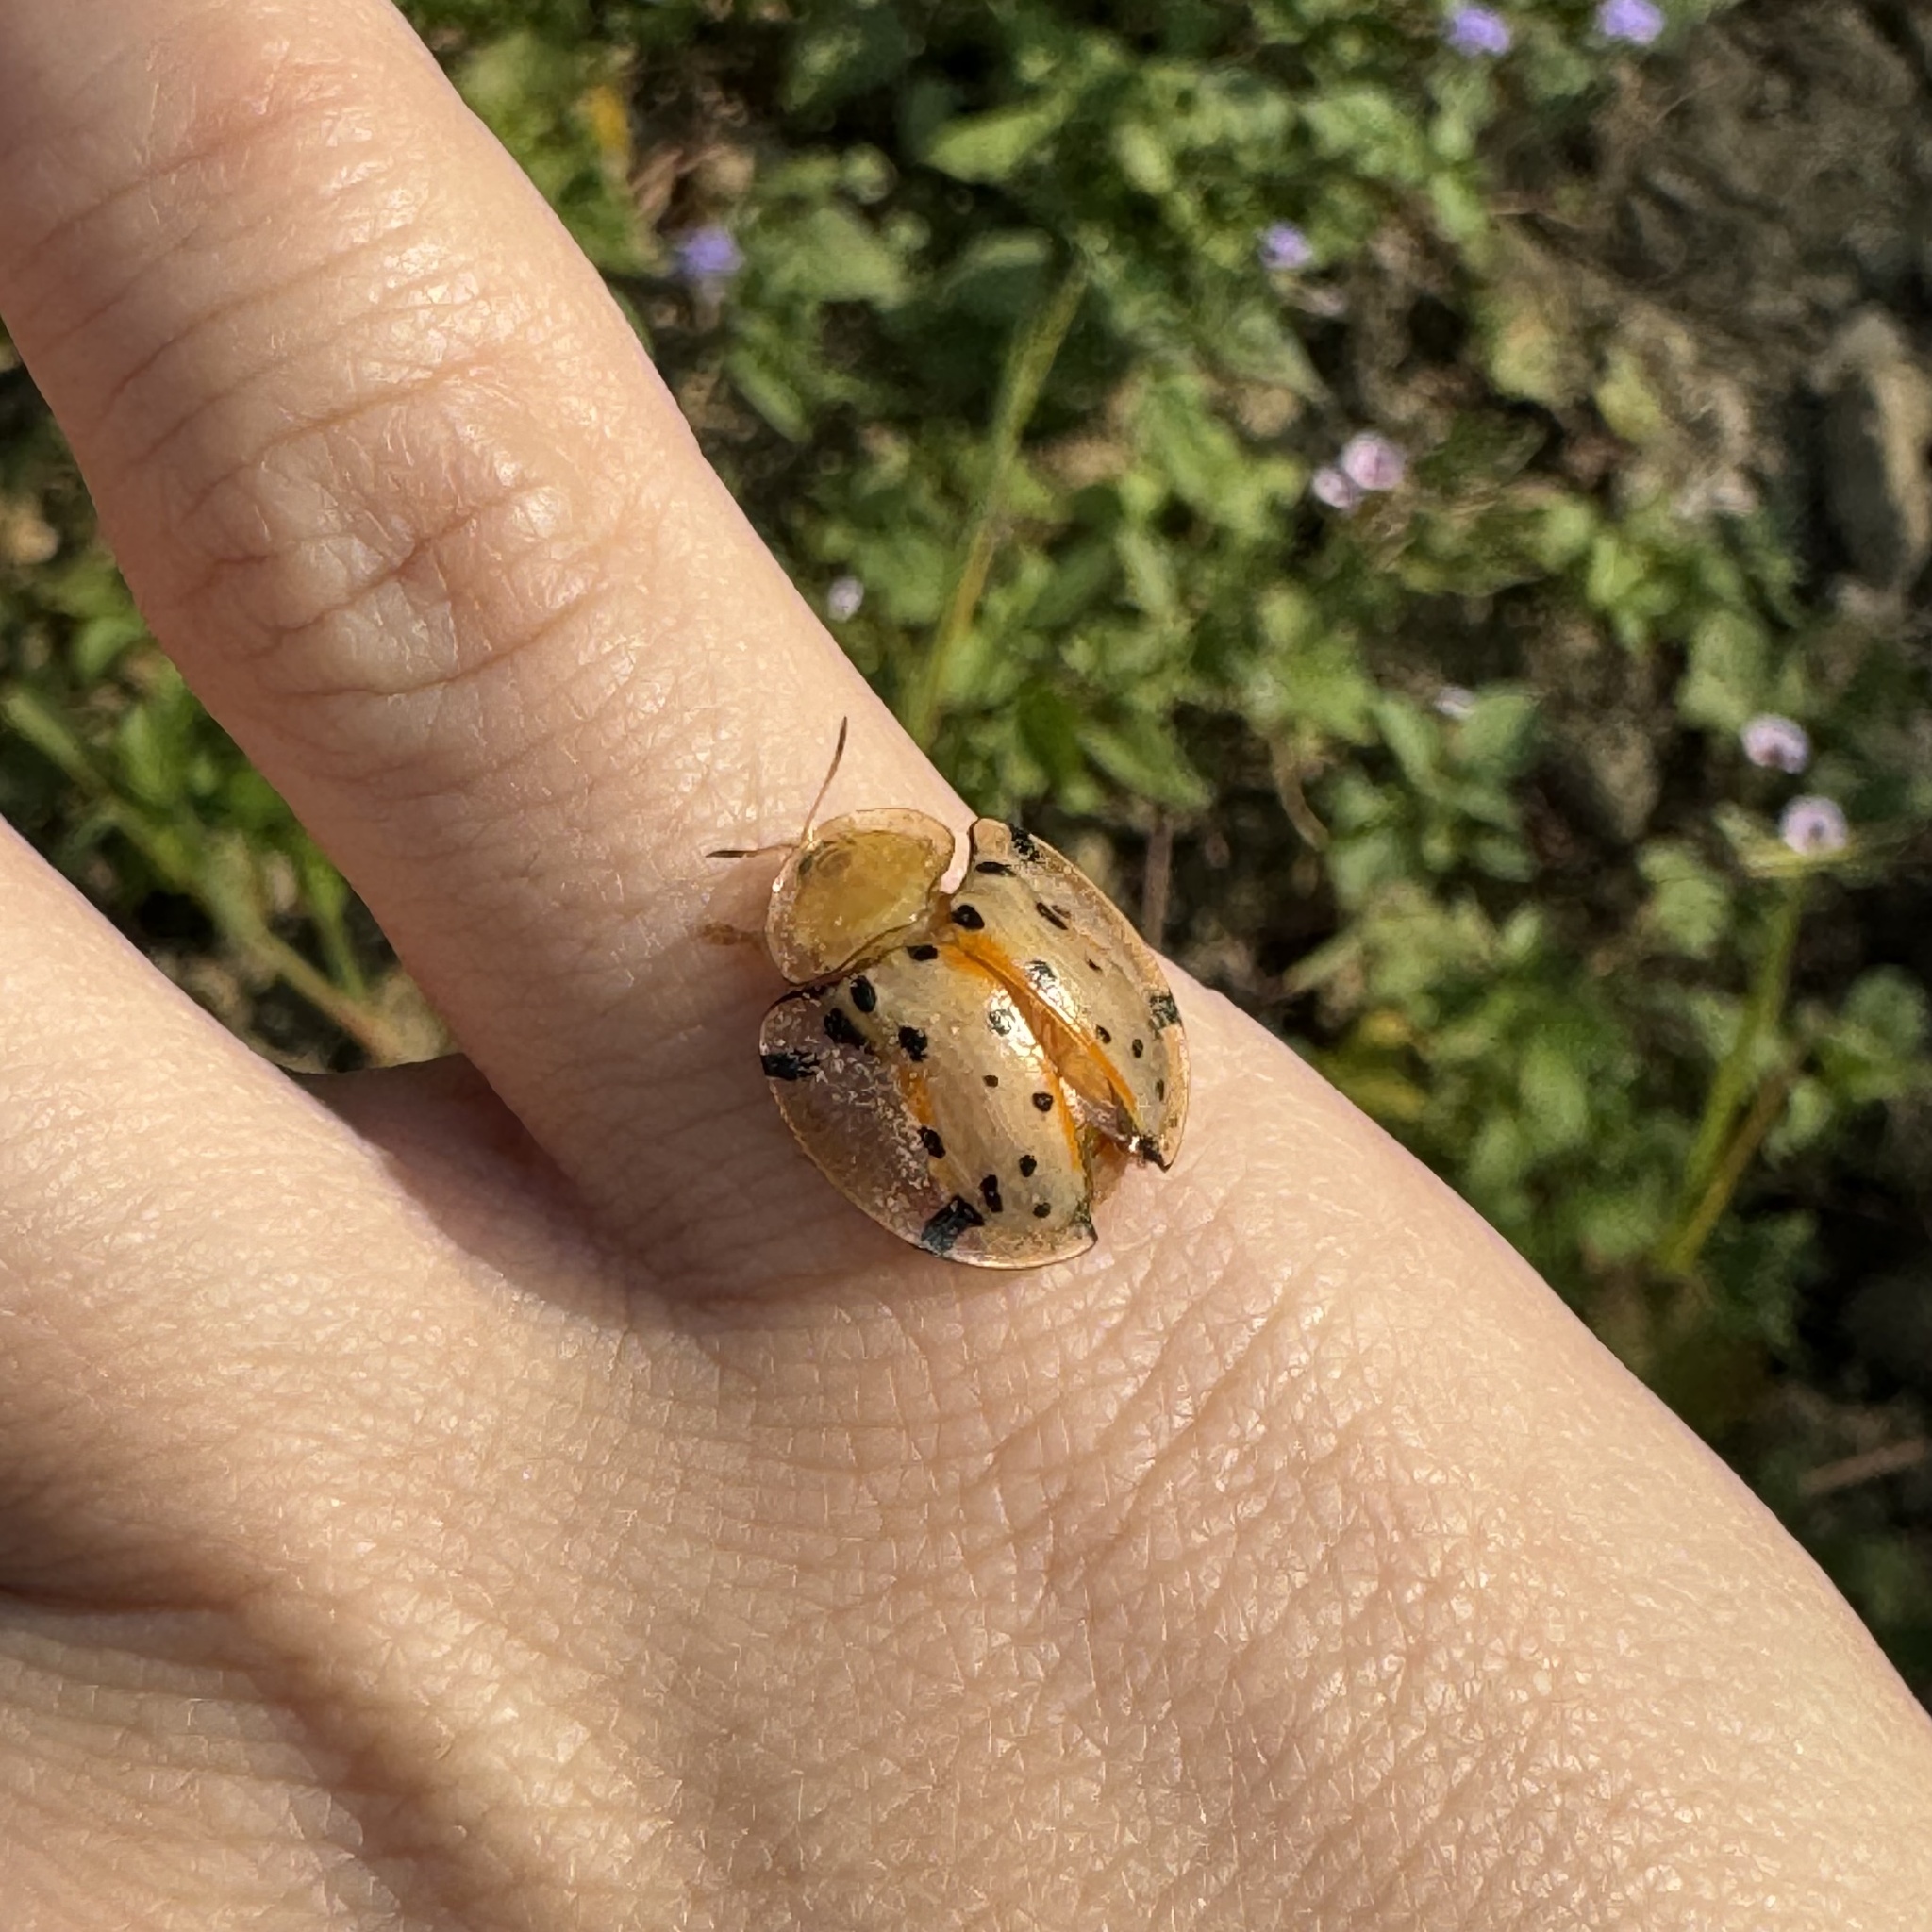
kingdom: Animalia
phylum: Arthropoda
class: Insecta
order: Coleoptera
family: Chrysomelidae
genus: Aspidimorpha
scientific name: Aspidimorpha miliaris
